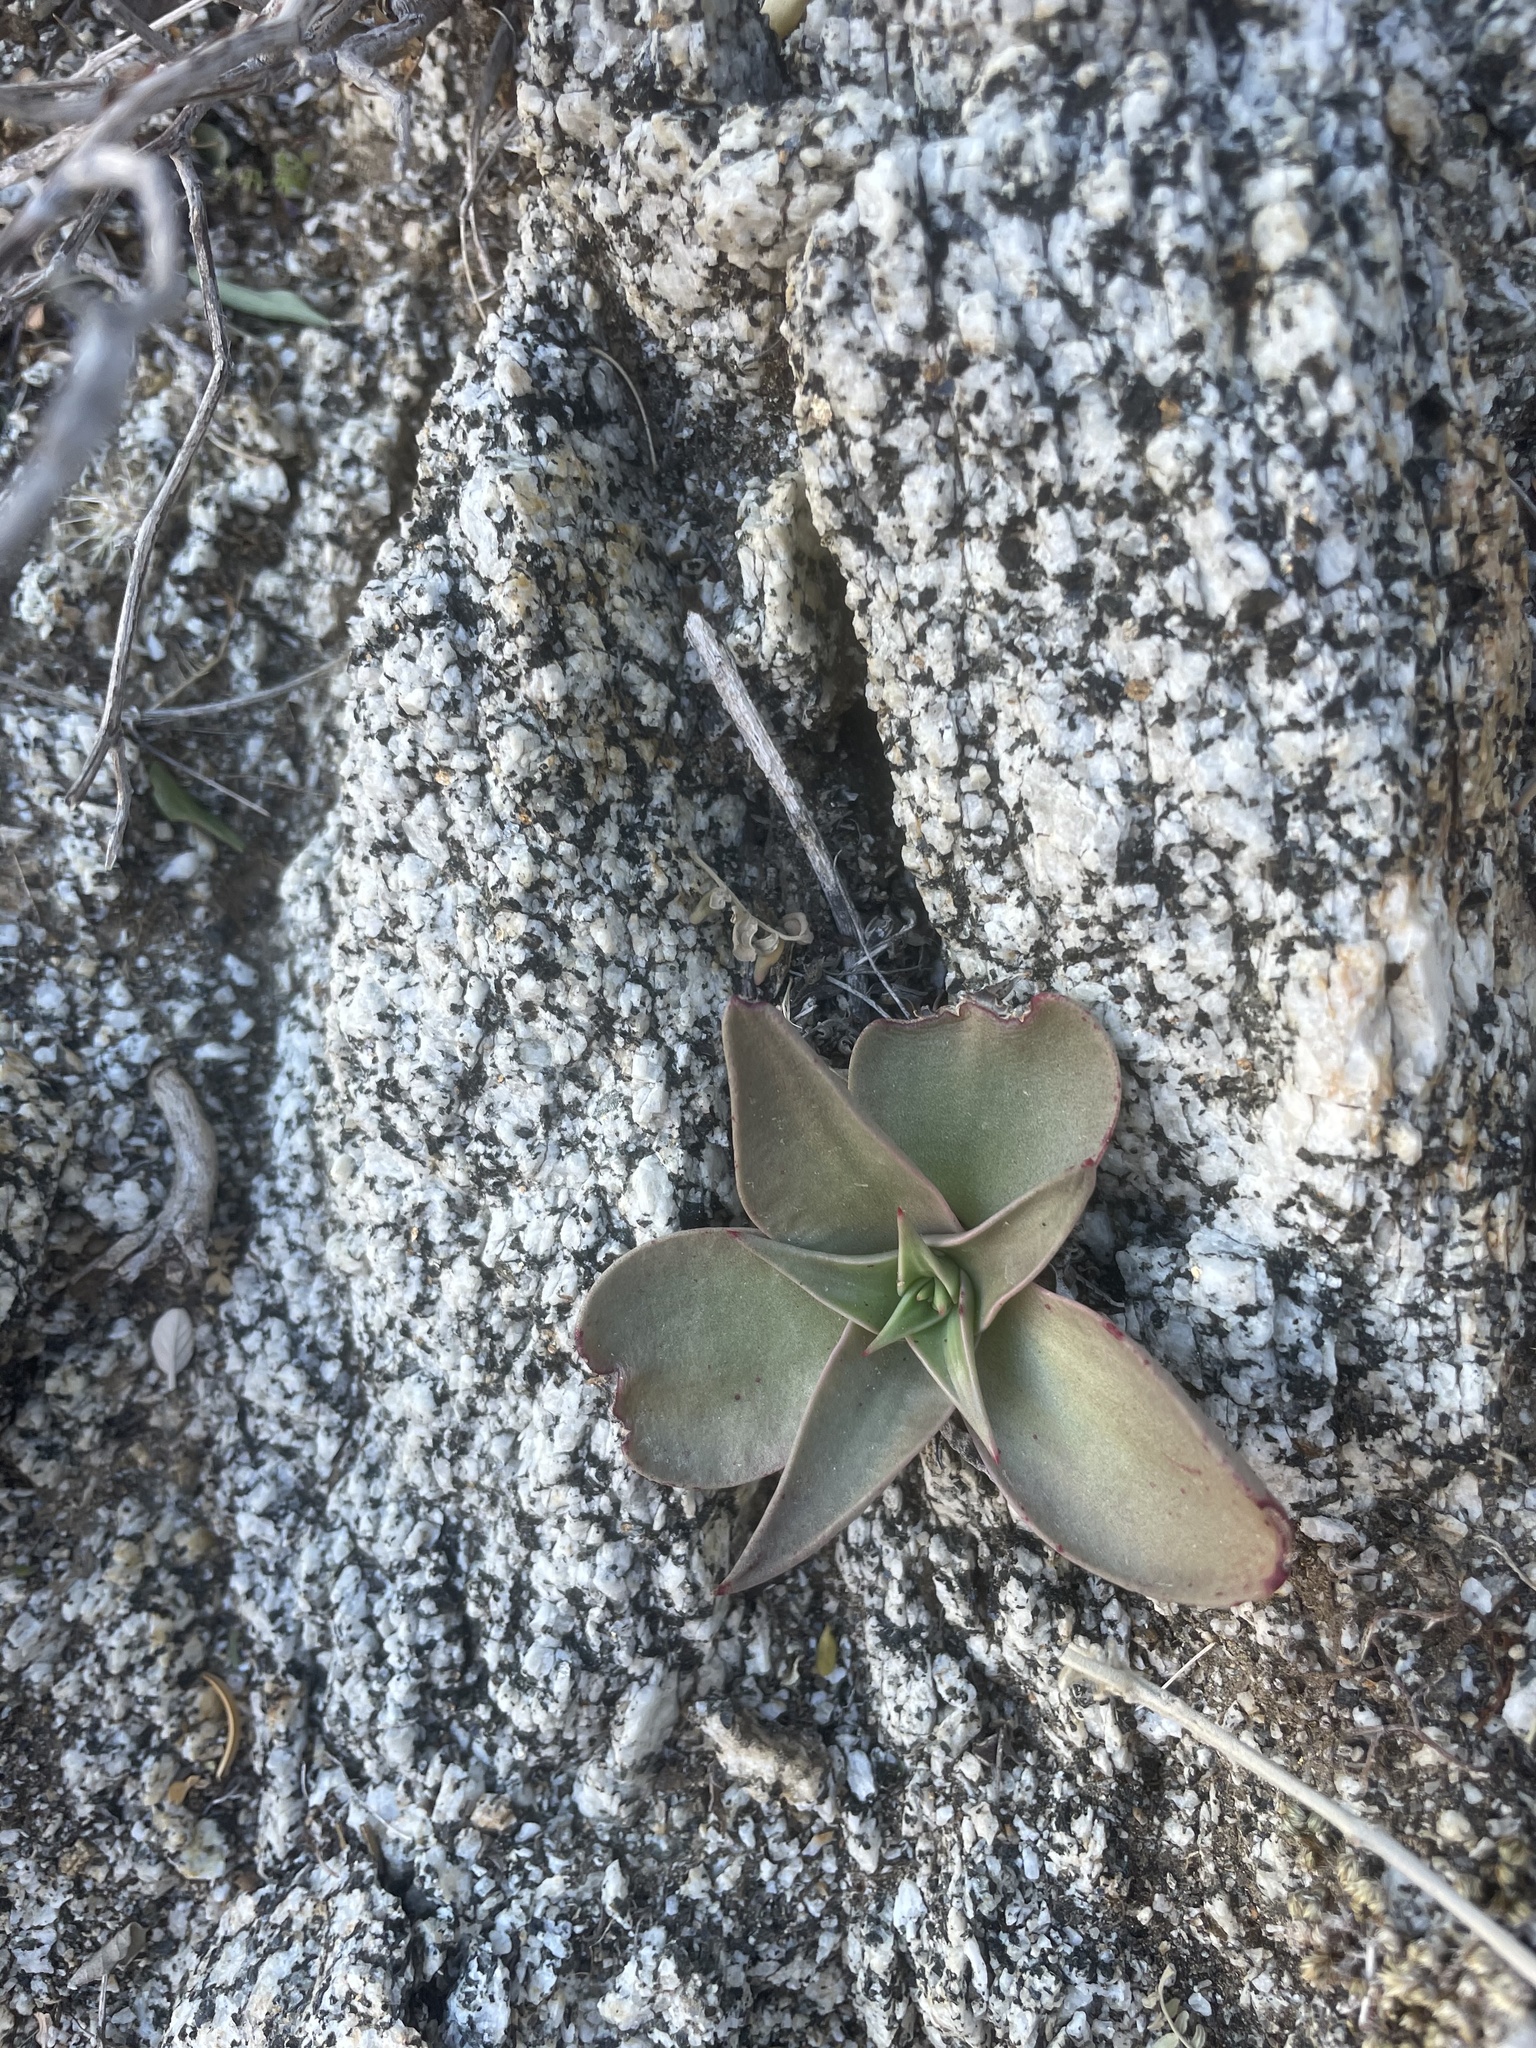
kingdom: Plantae
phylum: Tracheophyta
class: Magnoliopsida
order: Saxifragales
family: Crassulaceae
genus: Dudleya
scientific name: Dudleya gatesii
